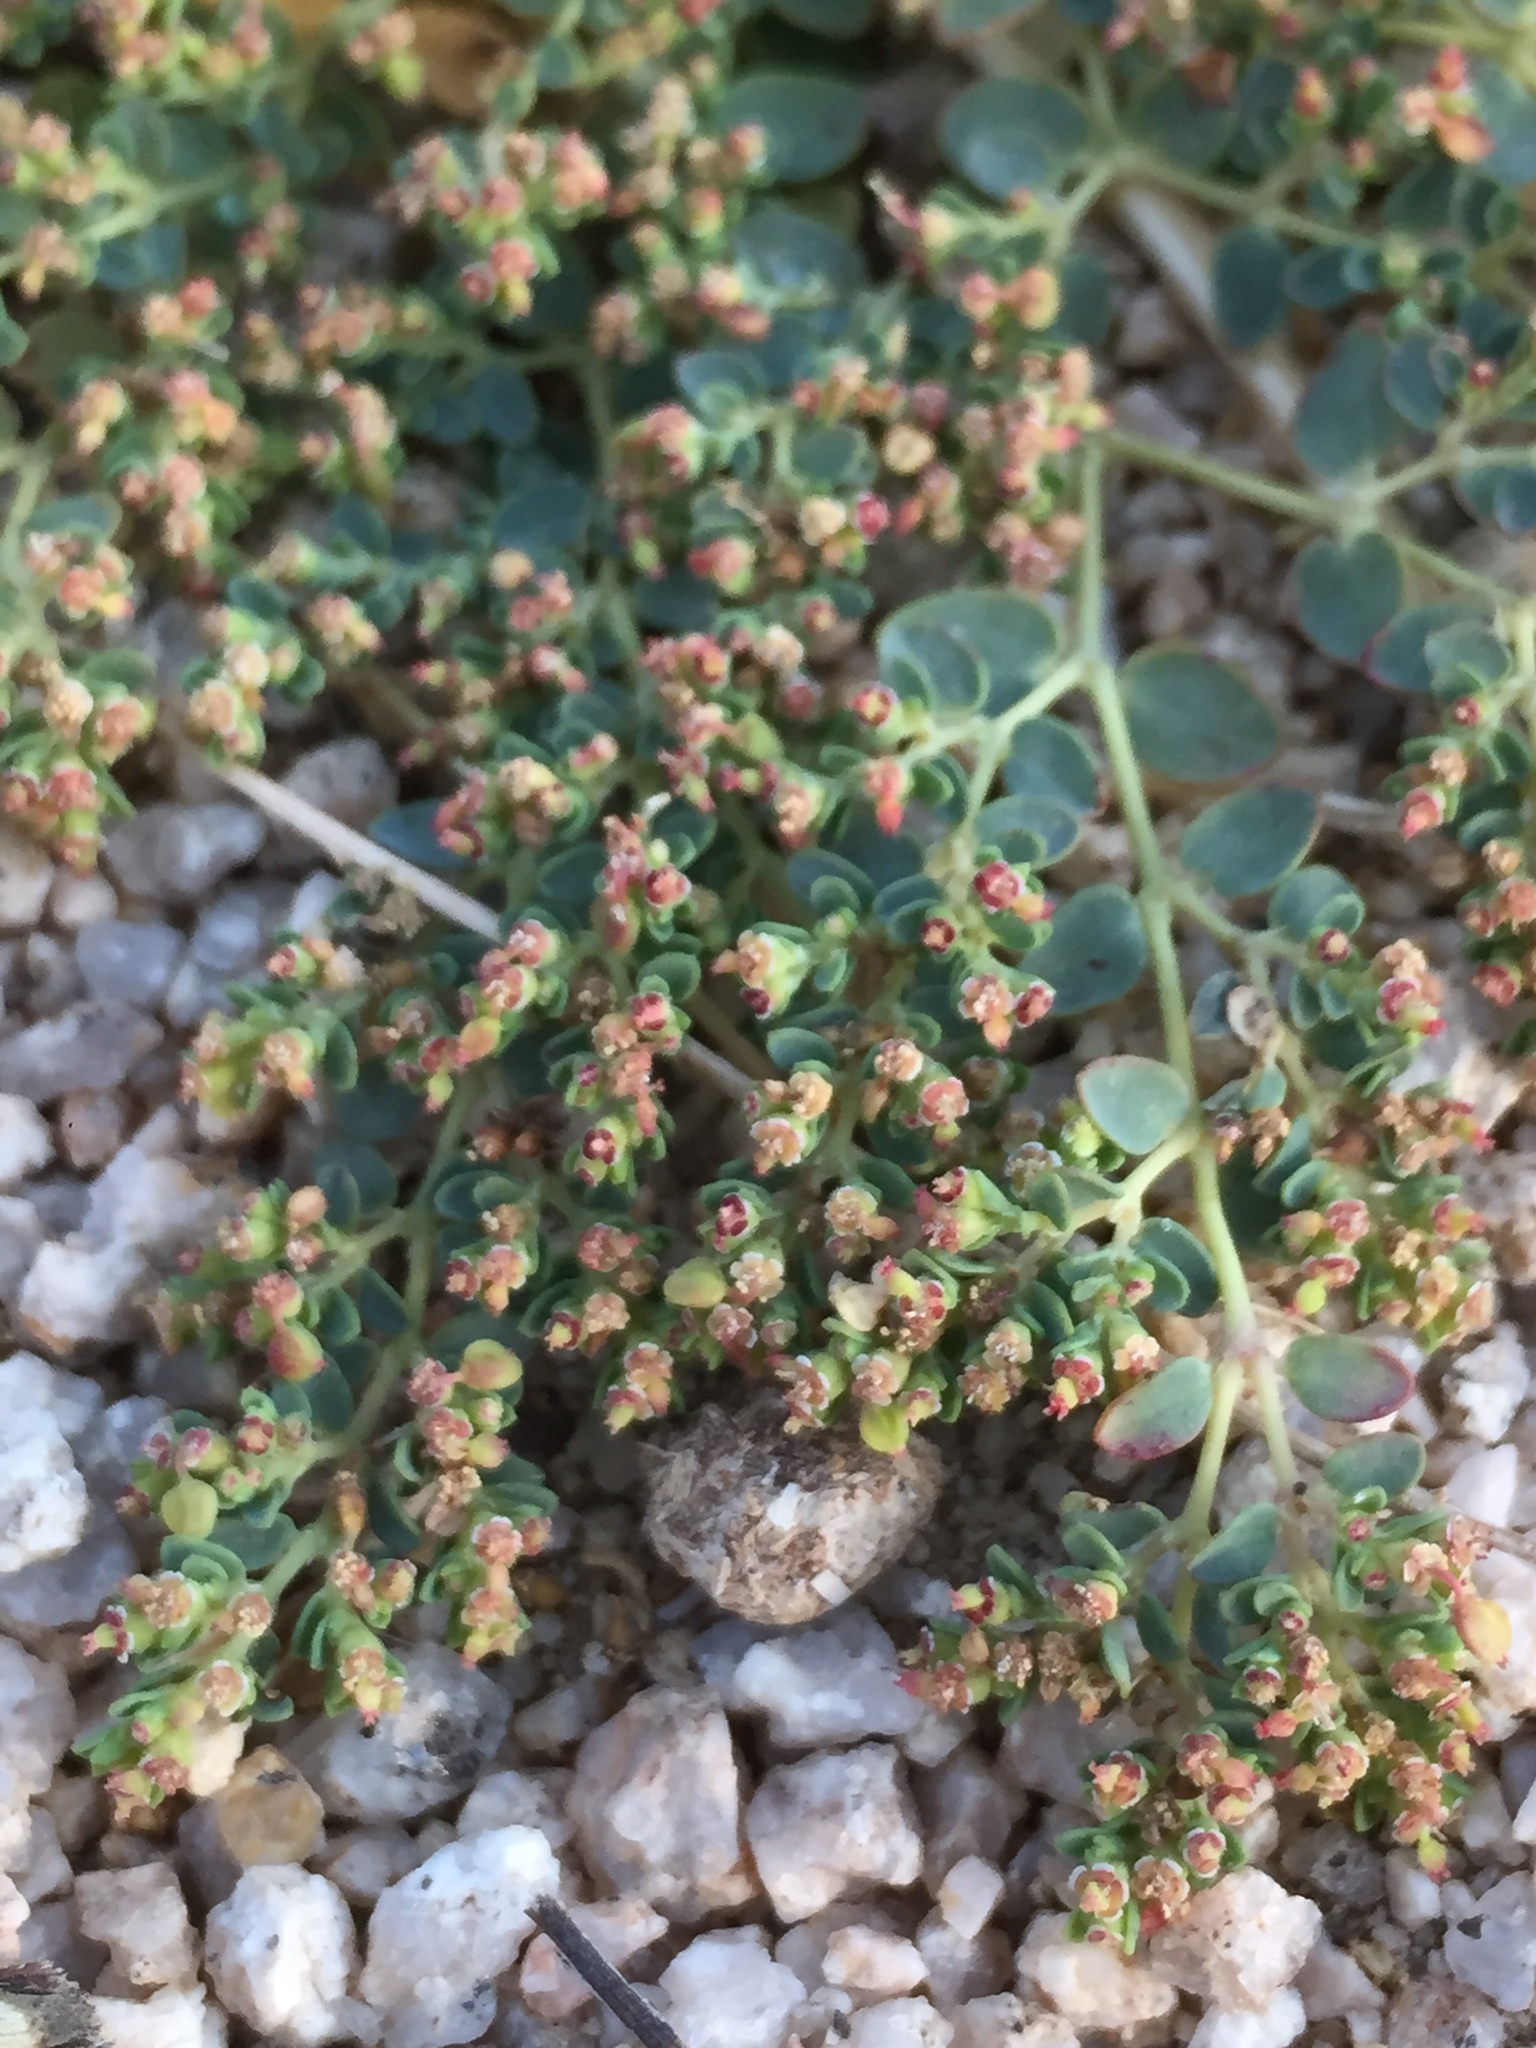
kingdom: Plantae
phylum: Tracheophyta
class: Magnoliopsida
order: Malpighiales
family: Euphorbiaceae
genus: Euphorbia
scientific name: Euphorbia polycarpa
